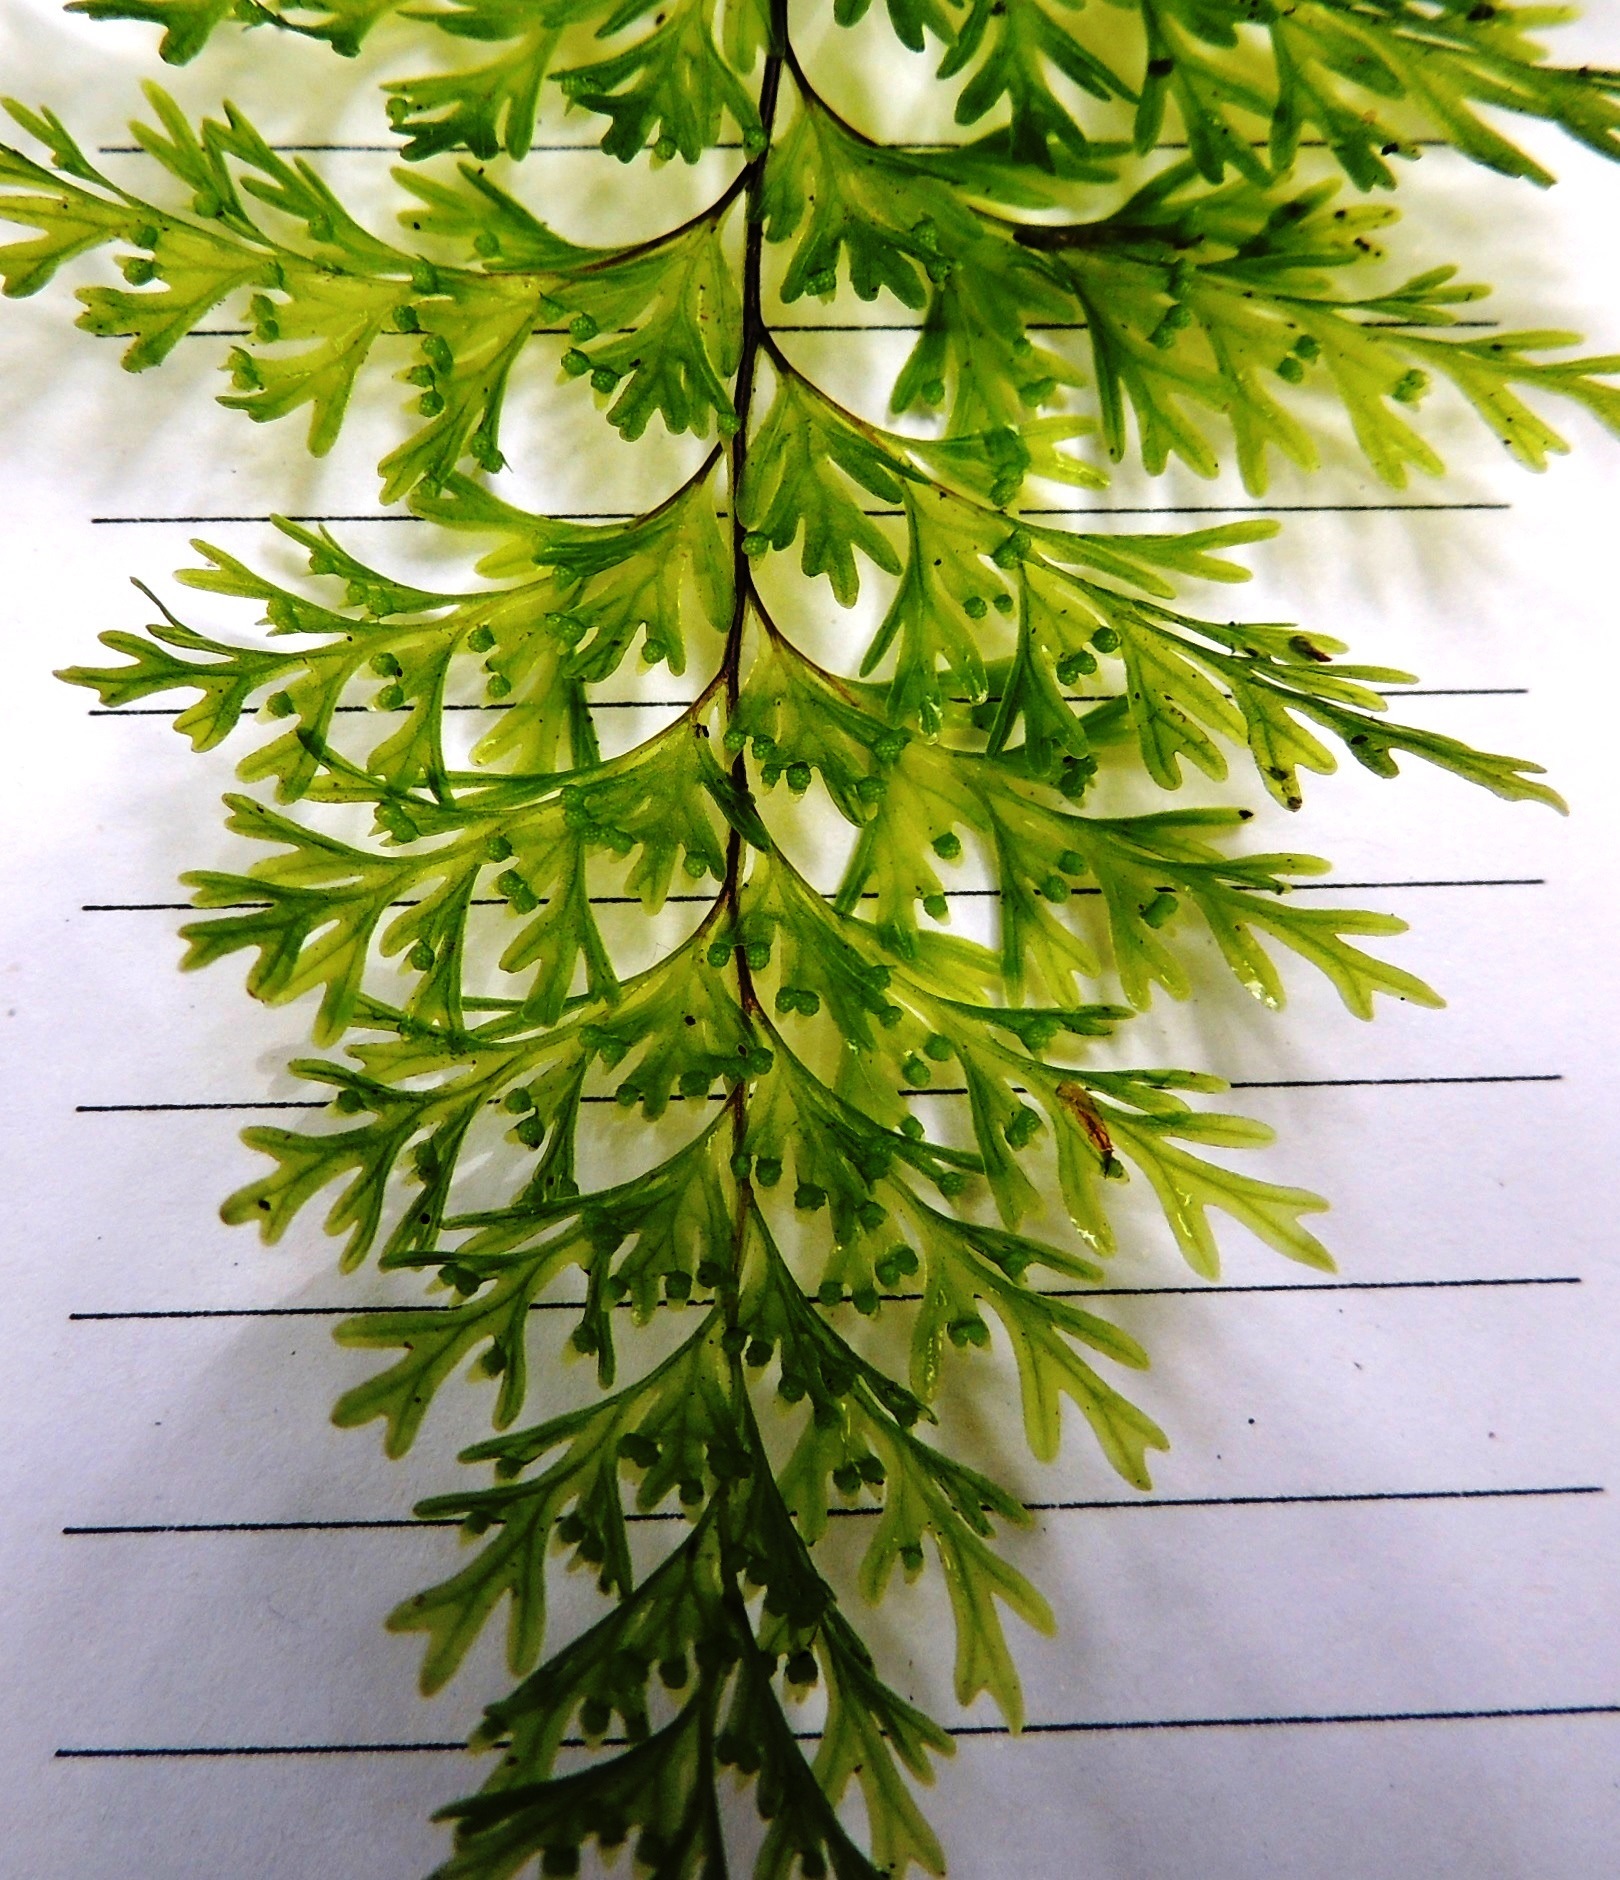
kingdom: Plantae
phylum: Tracheophyta
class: Polypodiopsida
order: Hymenophyllales
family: Hymenophyllaceae
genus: Hymenophyllum
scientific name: Hymenophyllum demissum
